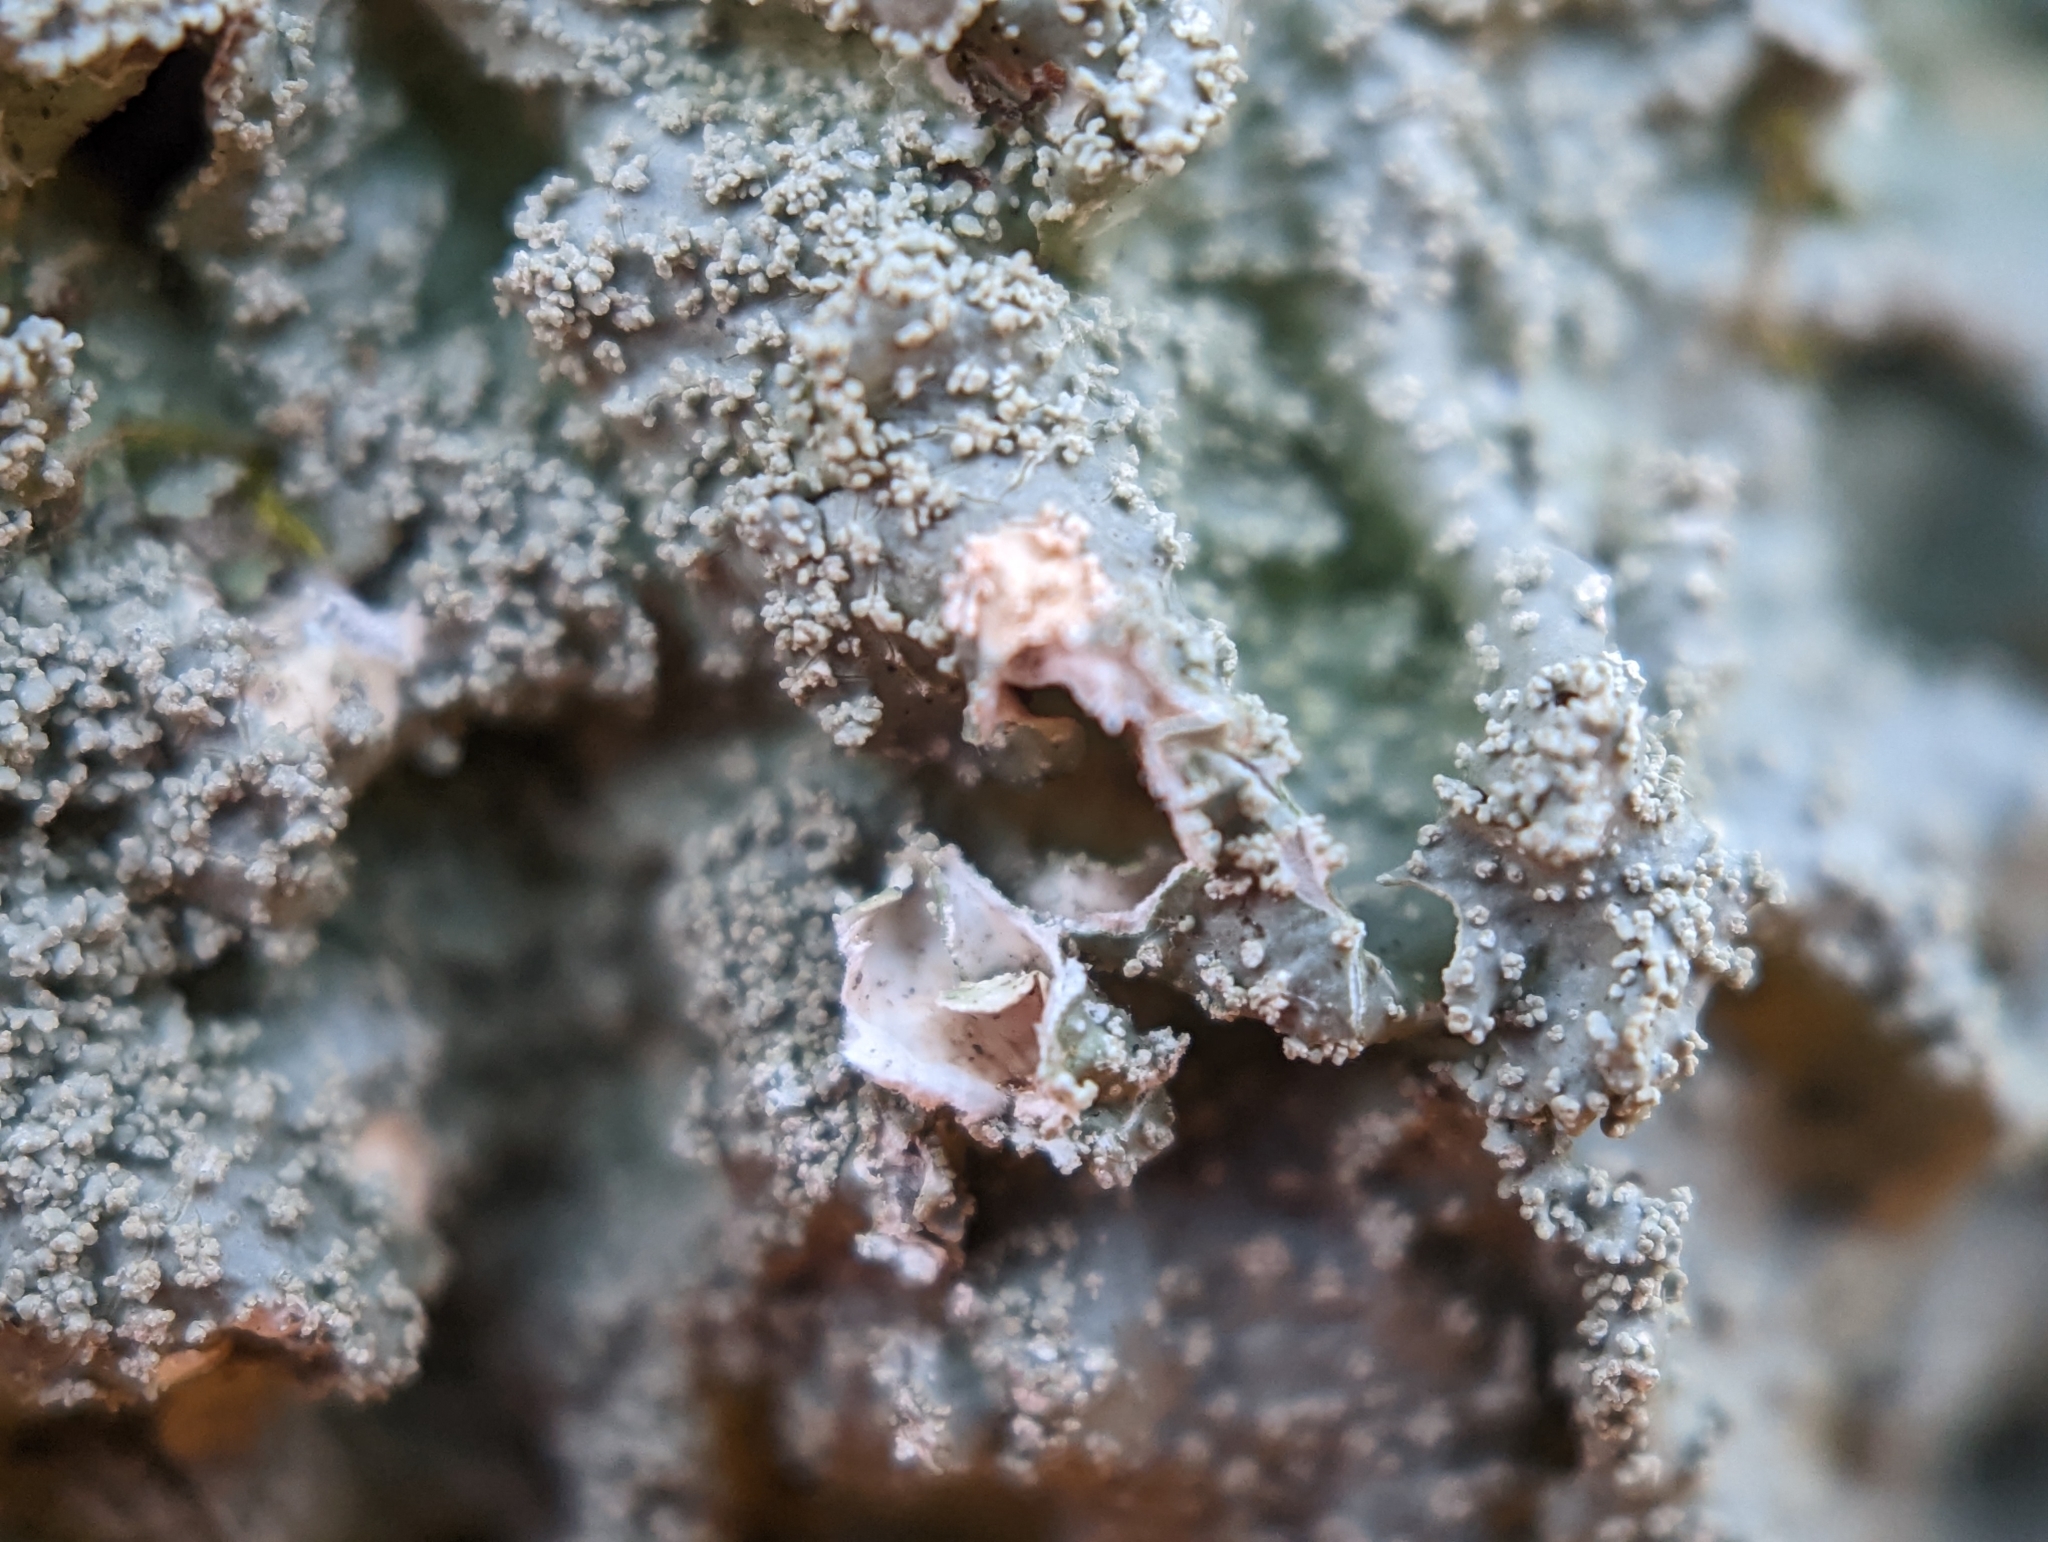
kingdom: Fungi
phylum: Ascomycota
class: Lecanoromycetes
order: Lecanorales
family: Parmeliaceae
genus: Punctelia
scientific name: Punctelia missouriensis
